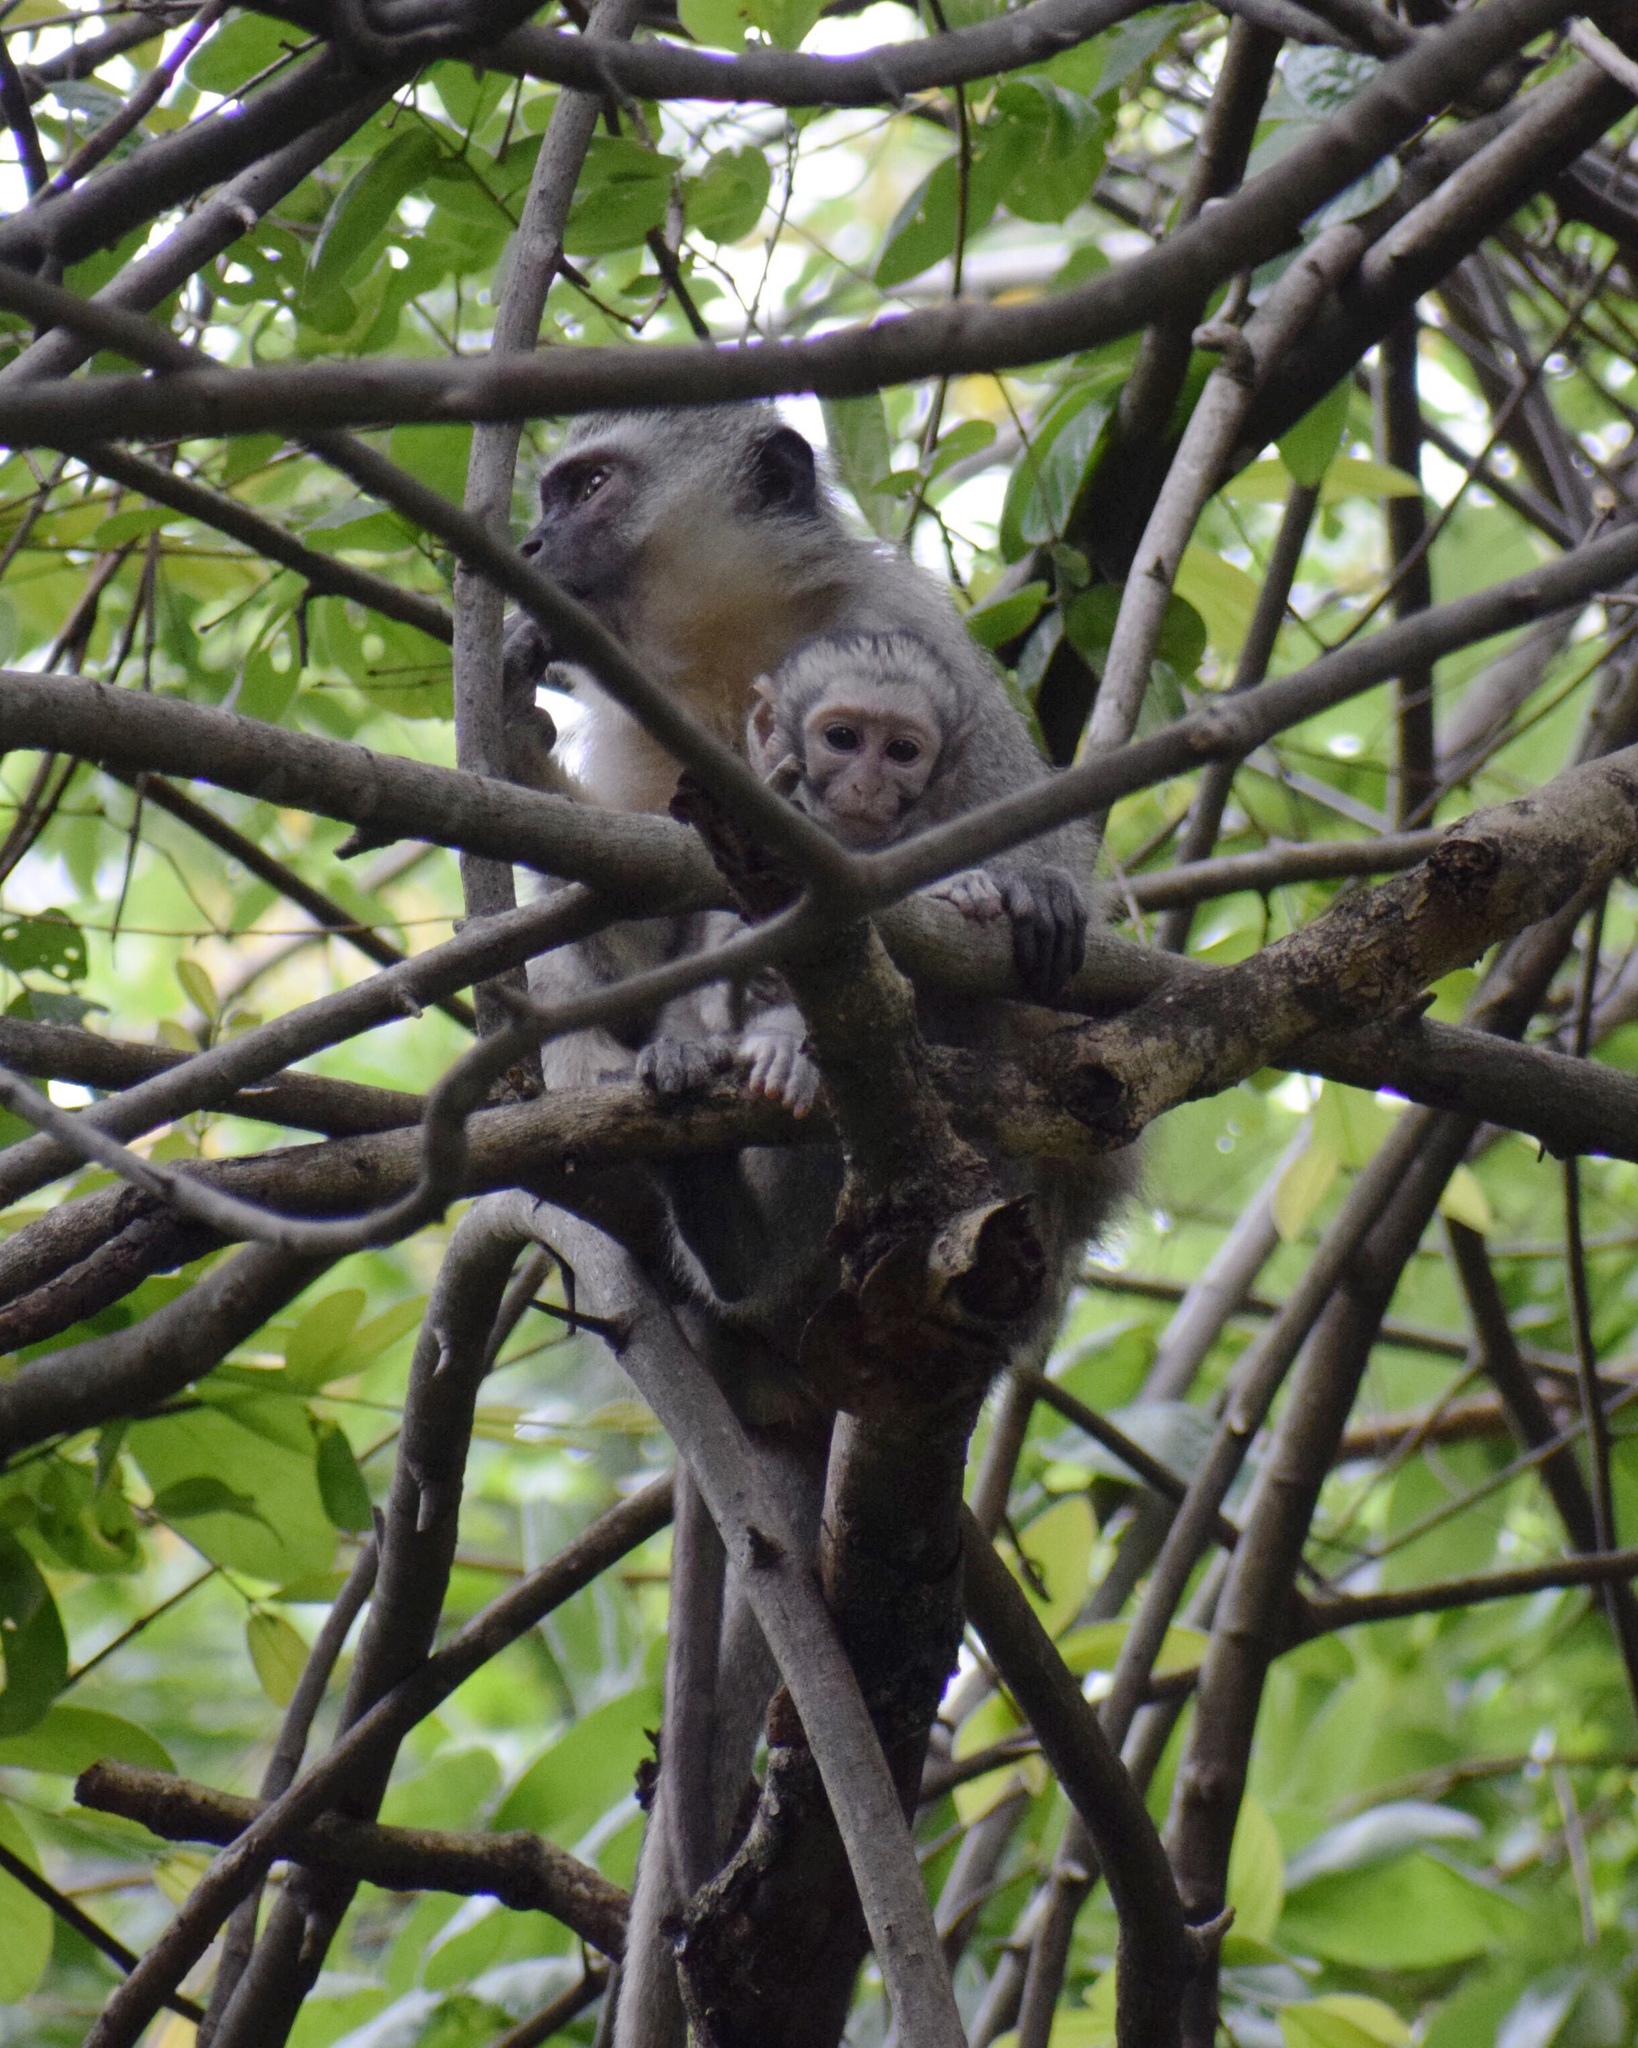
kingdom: Animalia
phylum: Chordata
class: Mammalia
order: Primates
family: Cercopithecidae
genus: Chlorocebus
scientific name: Chlorocebus pygerythrus
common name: Vervet monkey
